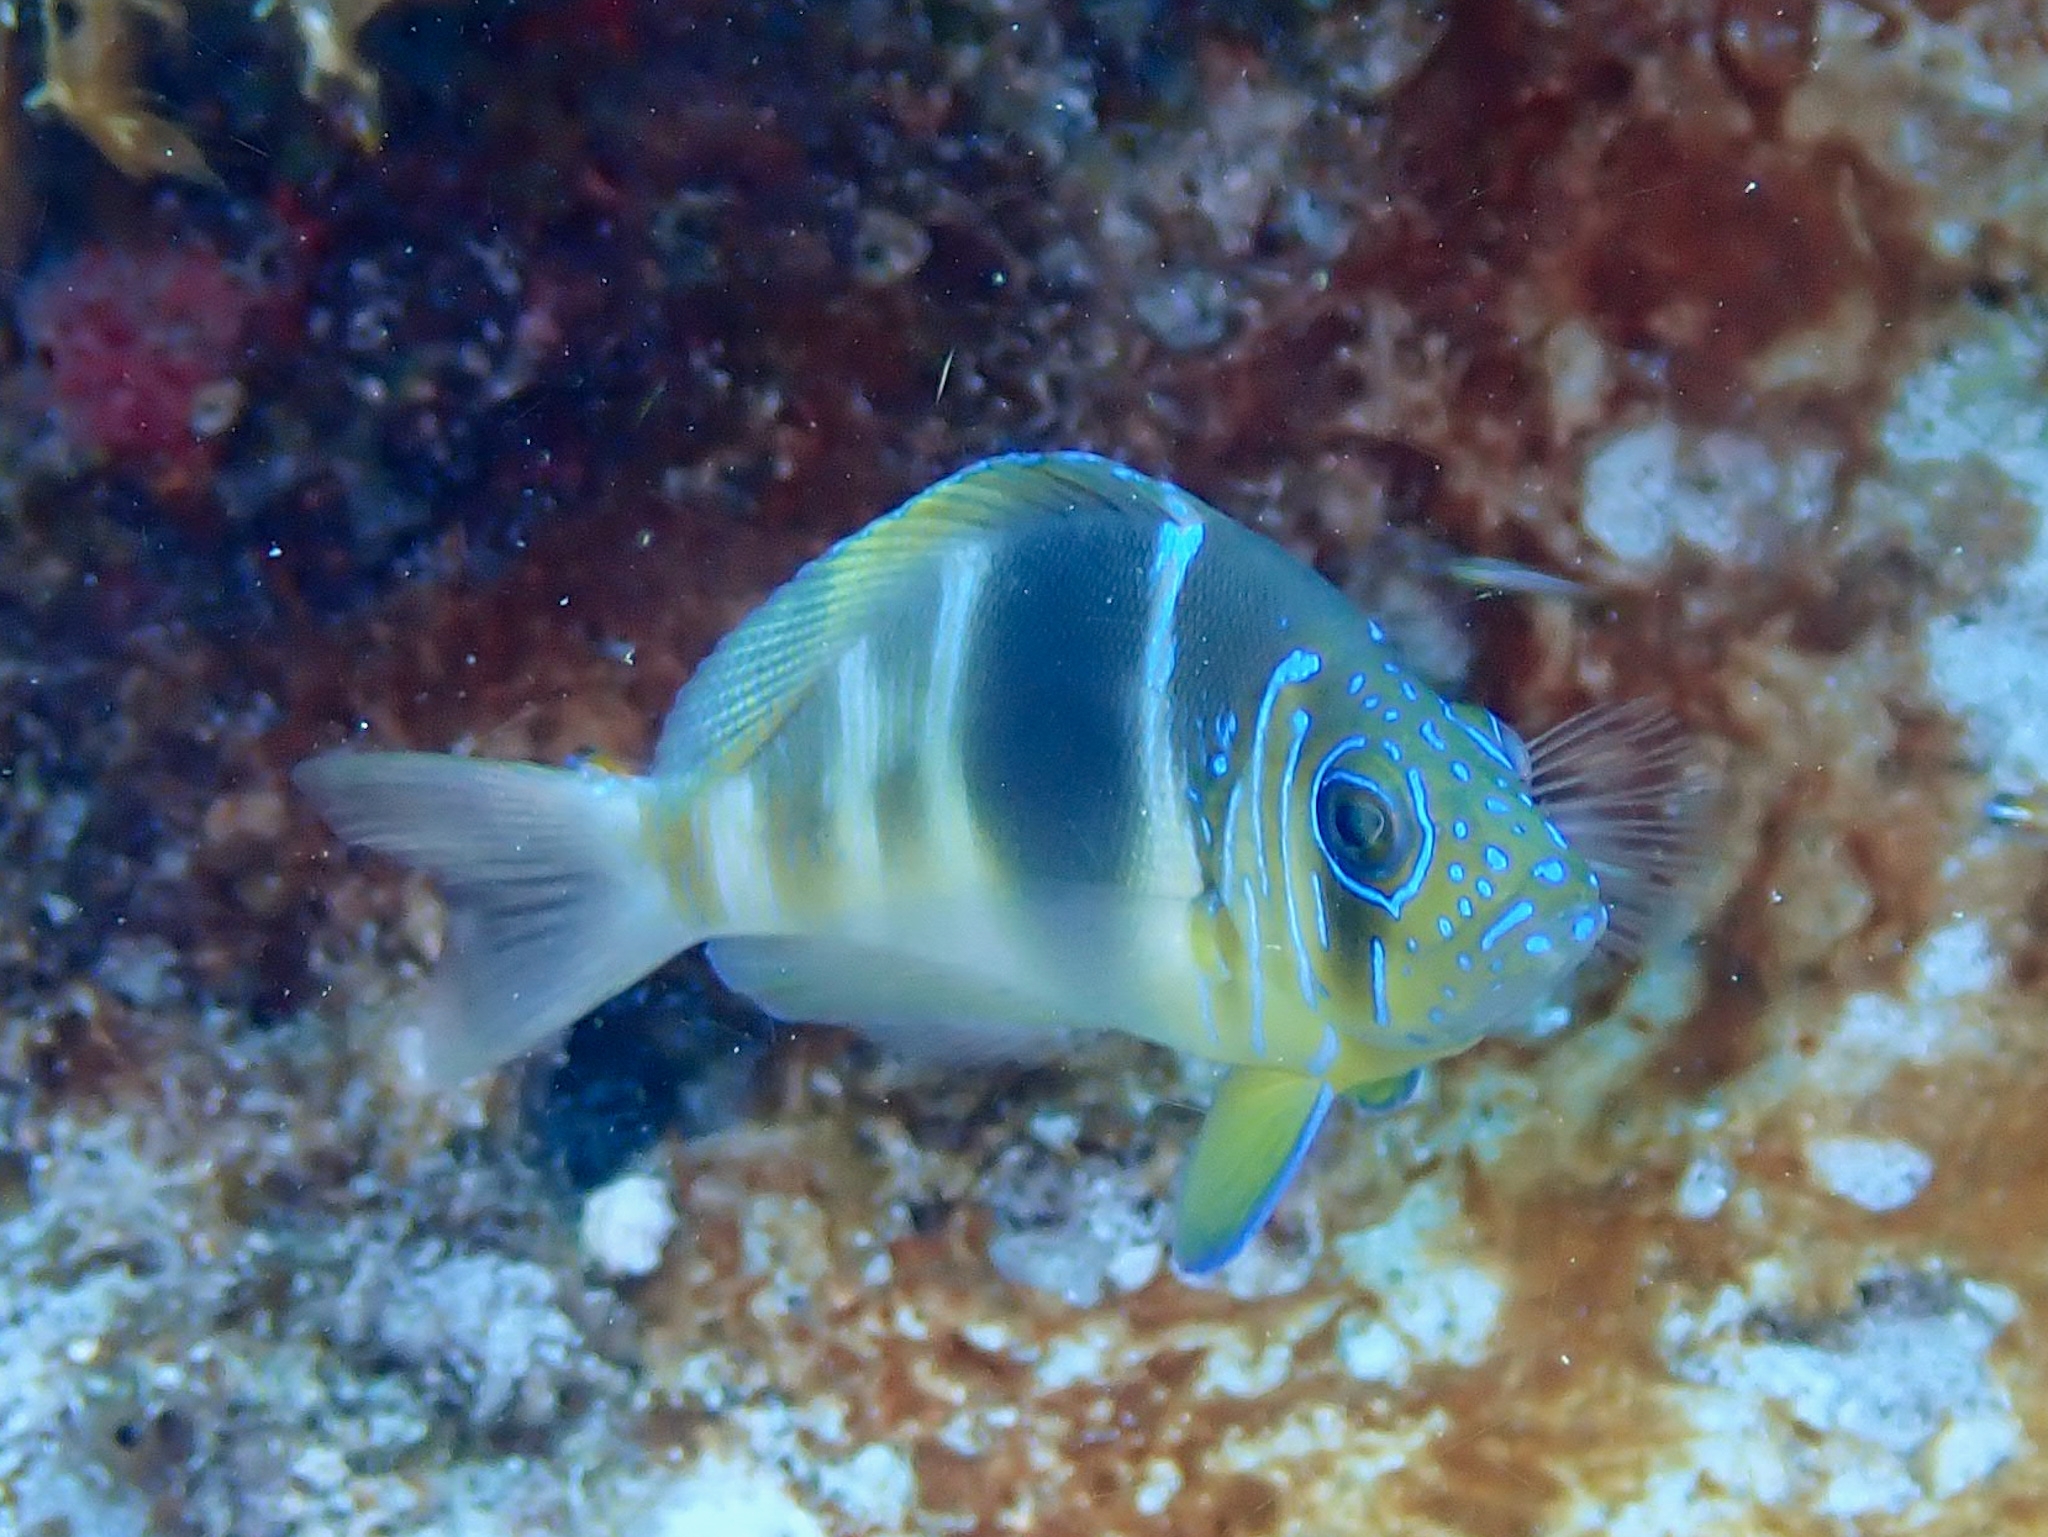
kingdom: Animalia
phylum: Chordata
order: Perciformes
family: Serranidae
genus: Hypoplectrus
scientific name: Hypoplectrus puella
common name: Barred hamlet
